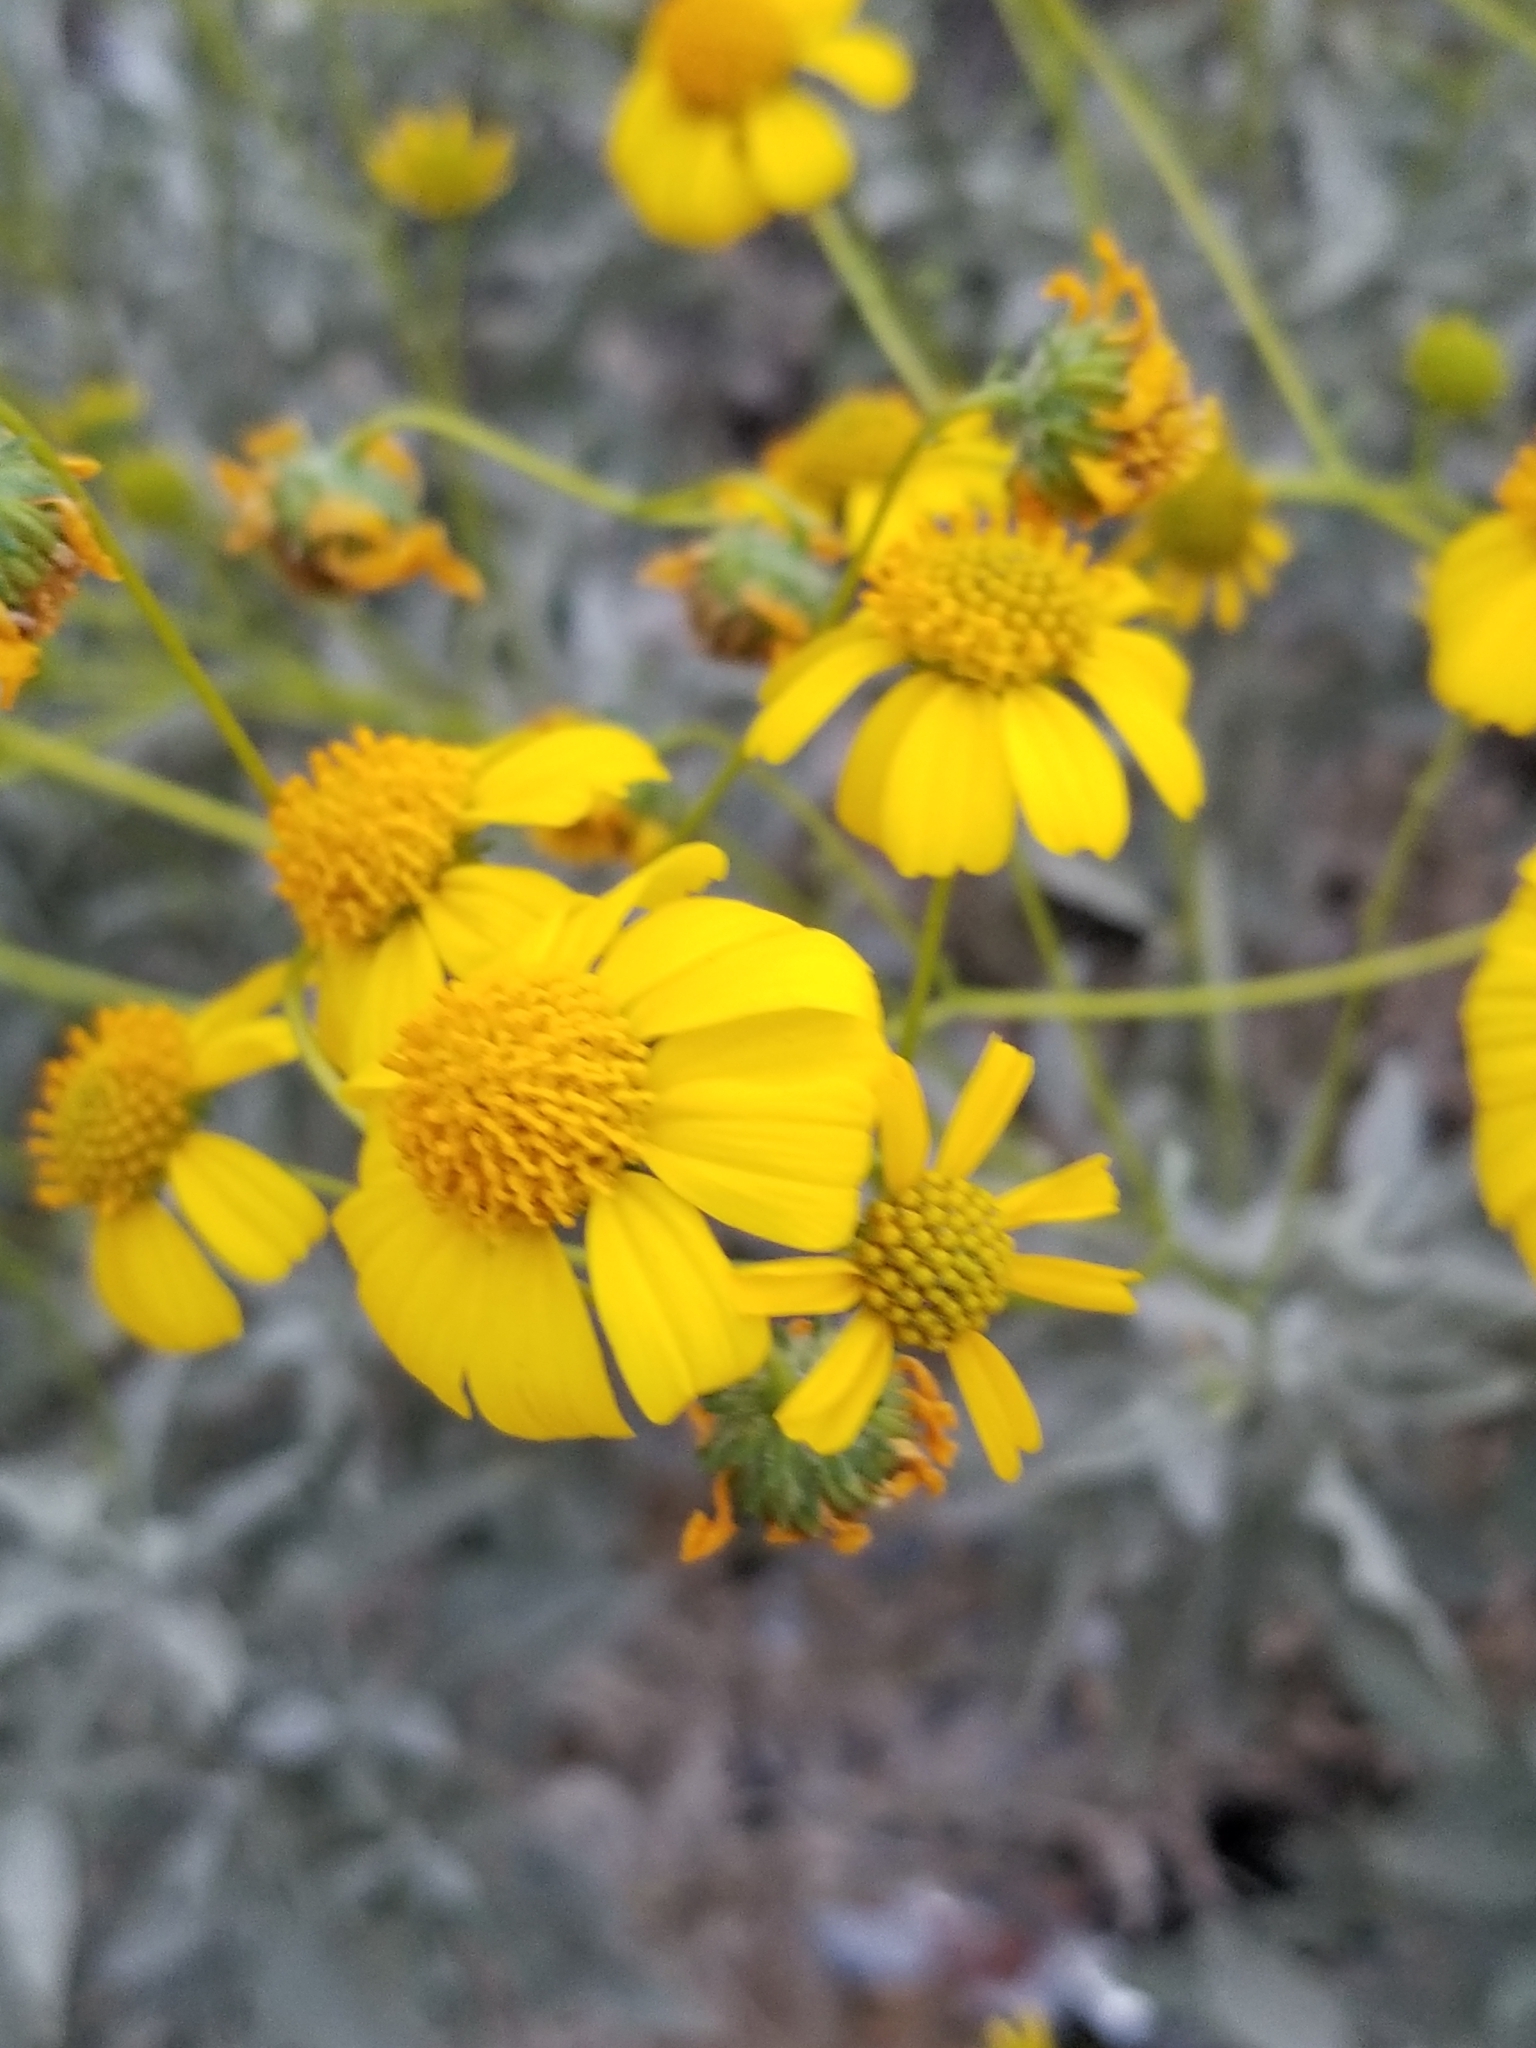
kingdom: Plantae
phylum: Tracheophyta
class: Magnoliopsida
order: Asterales
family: Asteraceae
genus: Encelia
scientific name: Encelia farinosa
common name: Brittlebush
